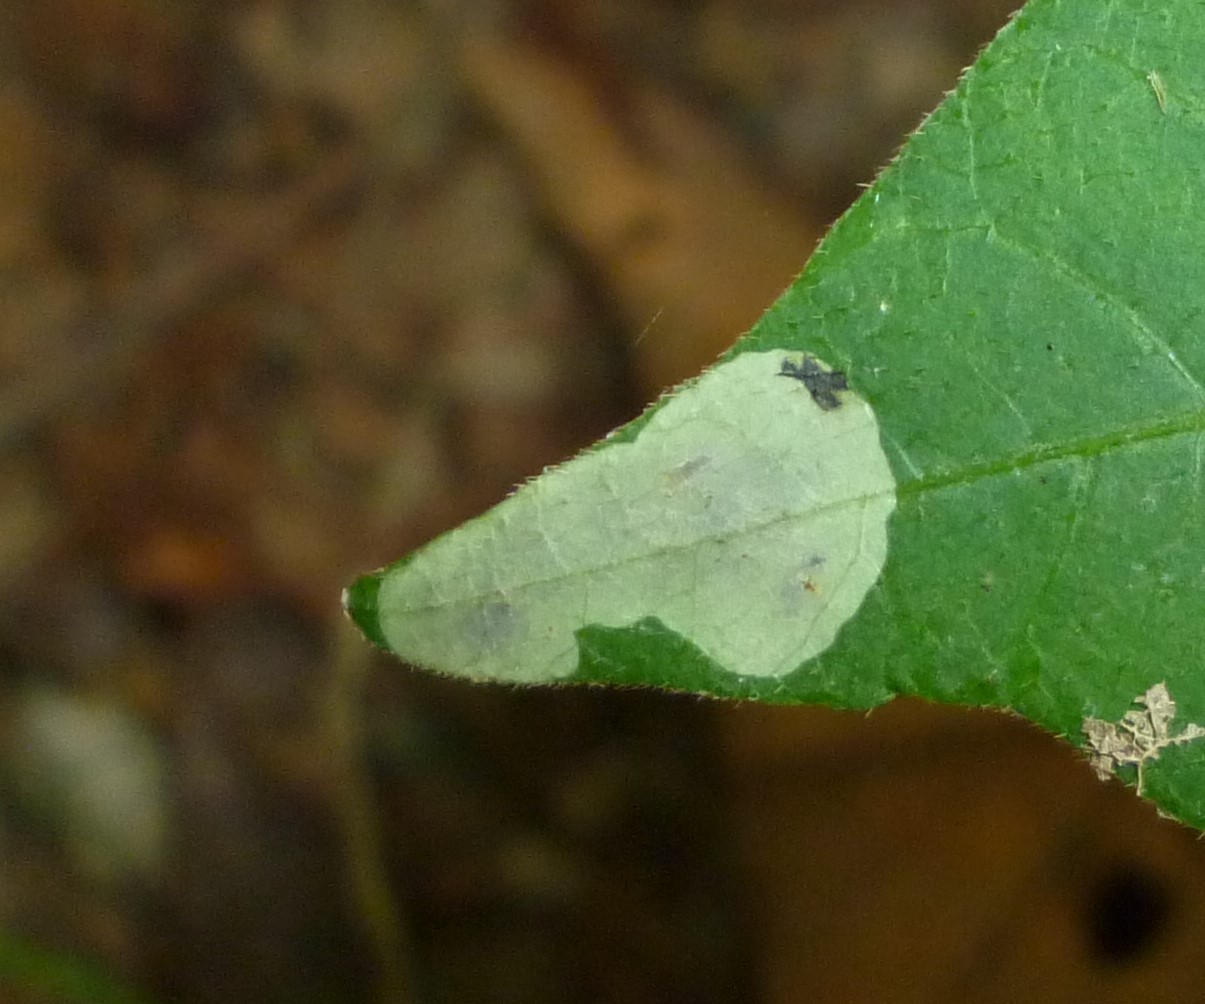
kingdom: Animalia
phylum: Arthropoda
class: Insecta
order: Lepidoptera
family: Gracillariidae
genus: Cameraria
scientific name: Cameraria guttifinitella
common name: Poison ivy leaf-miner moth
